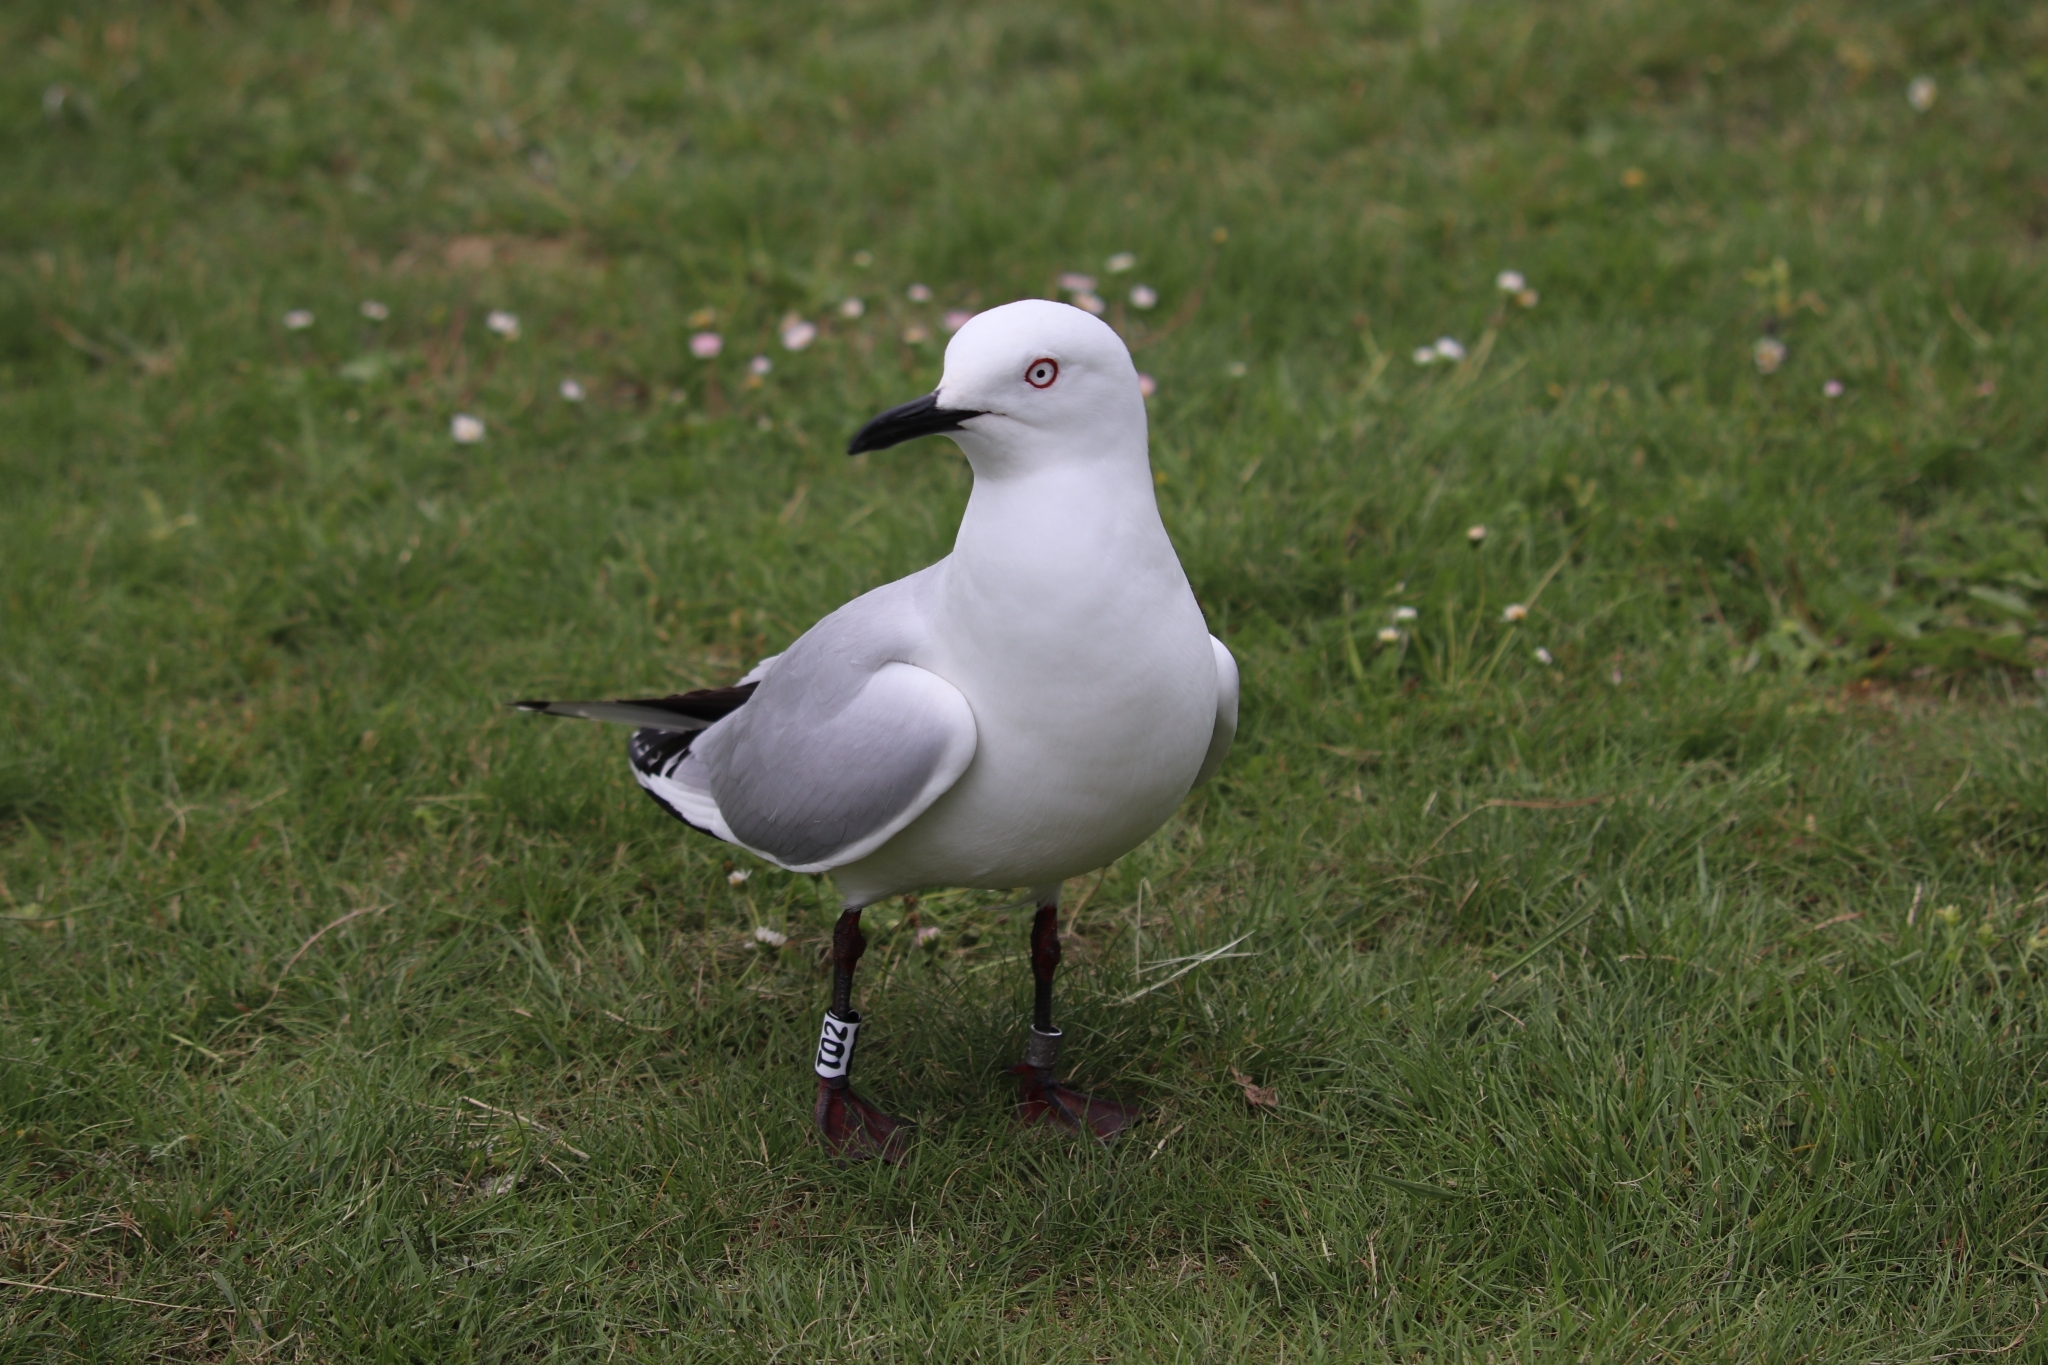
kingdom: Animalia
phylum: Chordata
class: Aves
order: Charadriiformes
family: Laridae
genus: Chroicocephalus
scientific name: Chroicocephalus bulleri
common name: Black-billed gull
